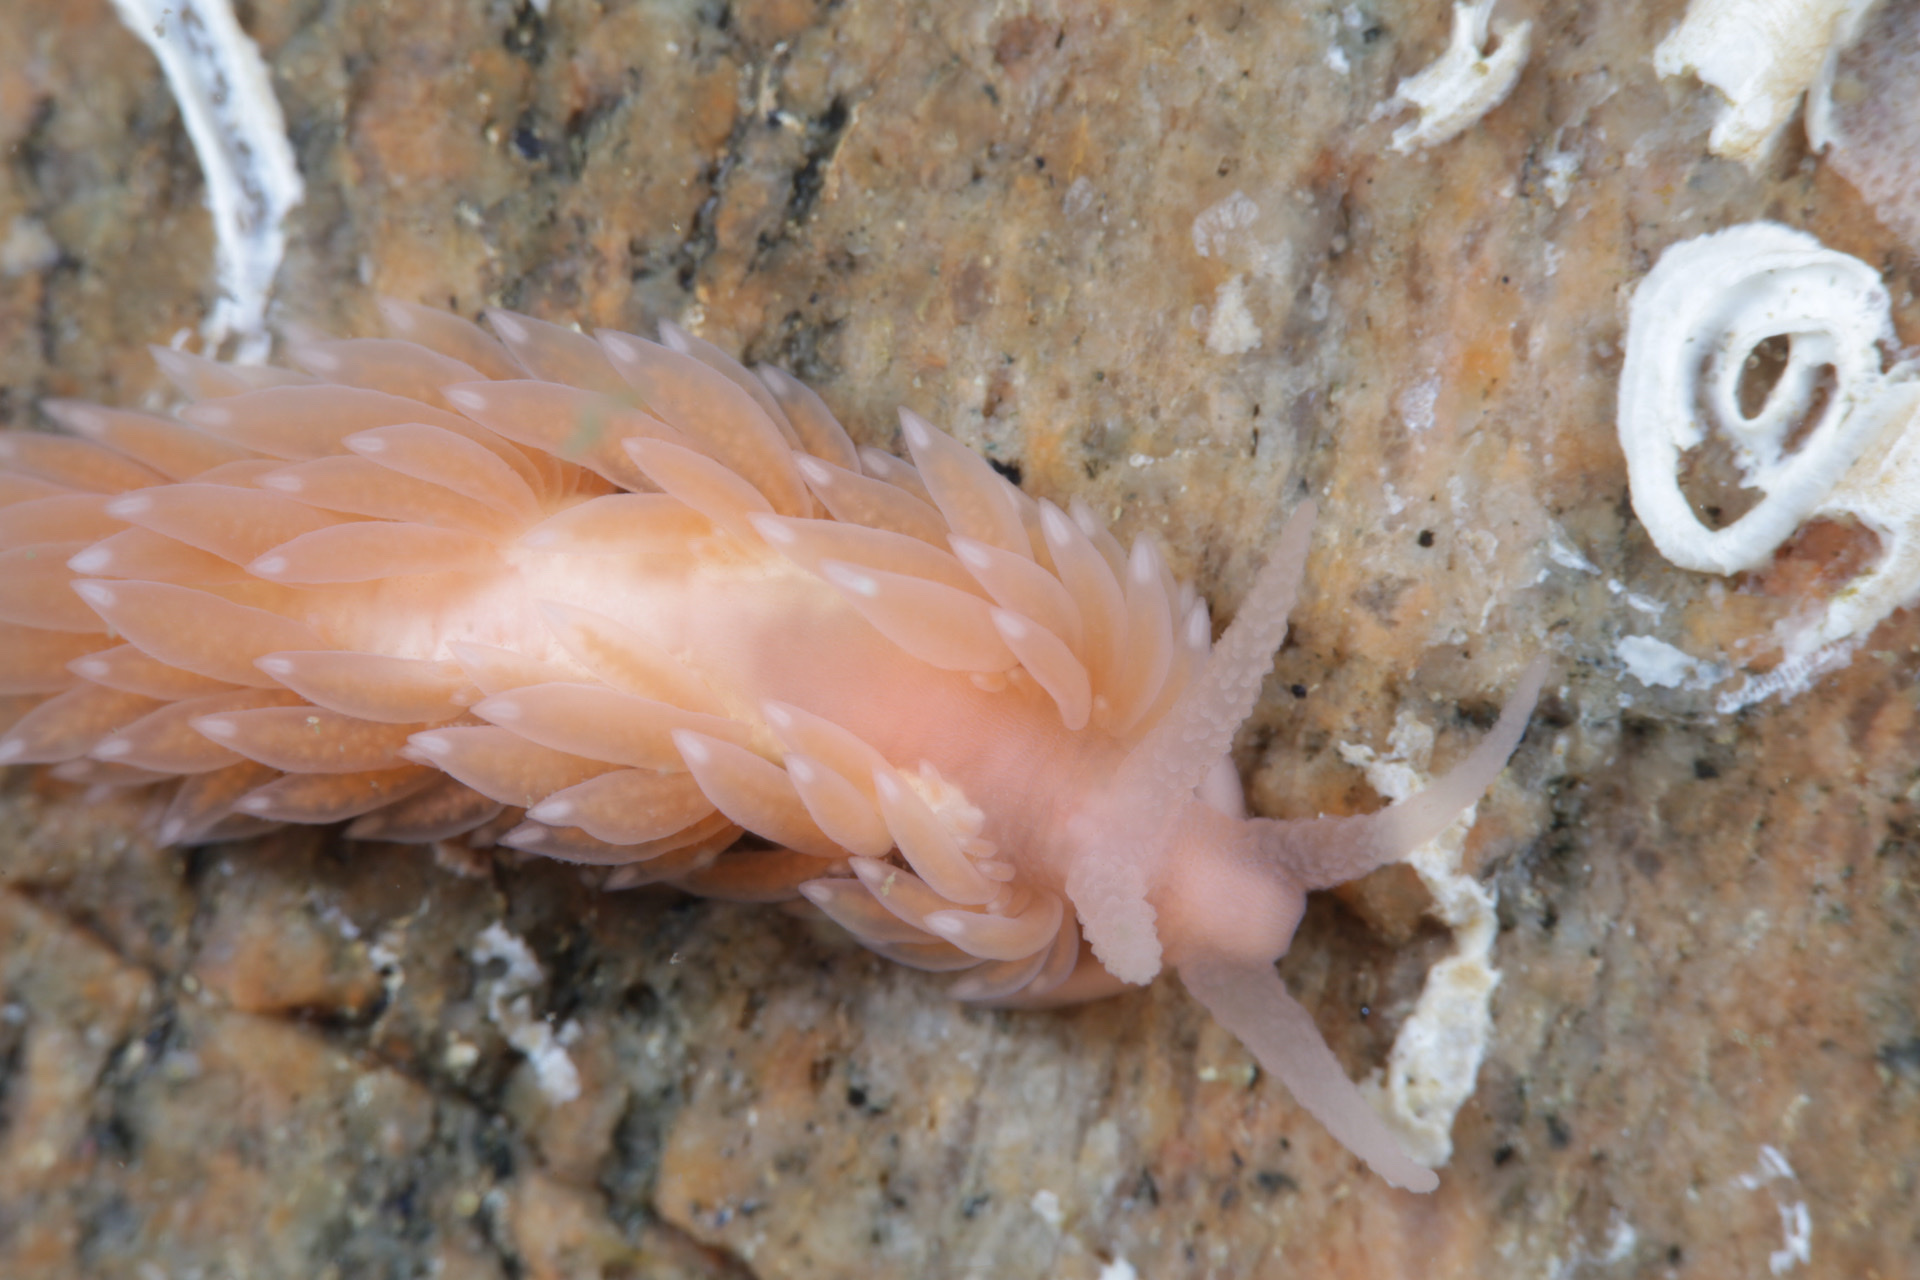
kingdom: Animalia
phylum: Mollusca
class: Gastropoda
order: Nudibranchia
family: Aeolidiidae
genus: Berghia
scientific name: Berghia norvegica
